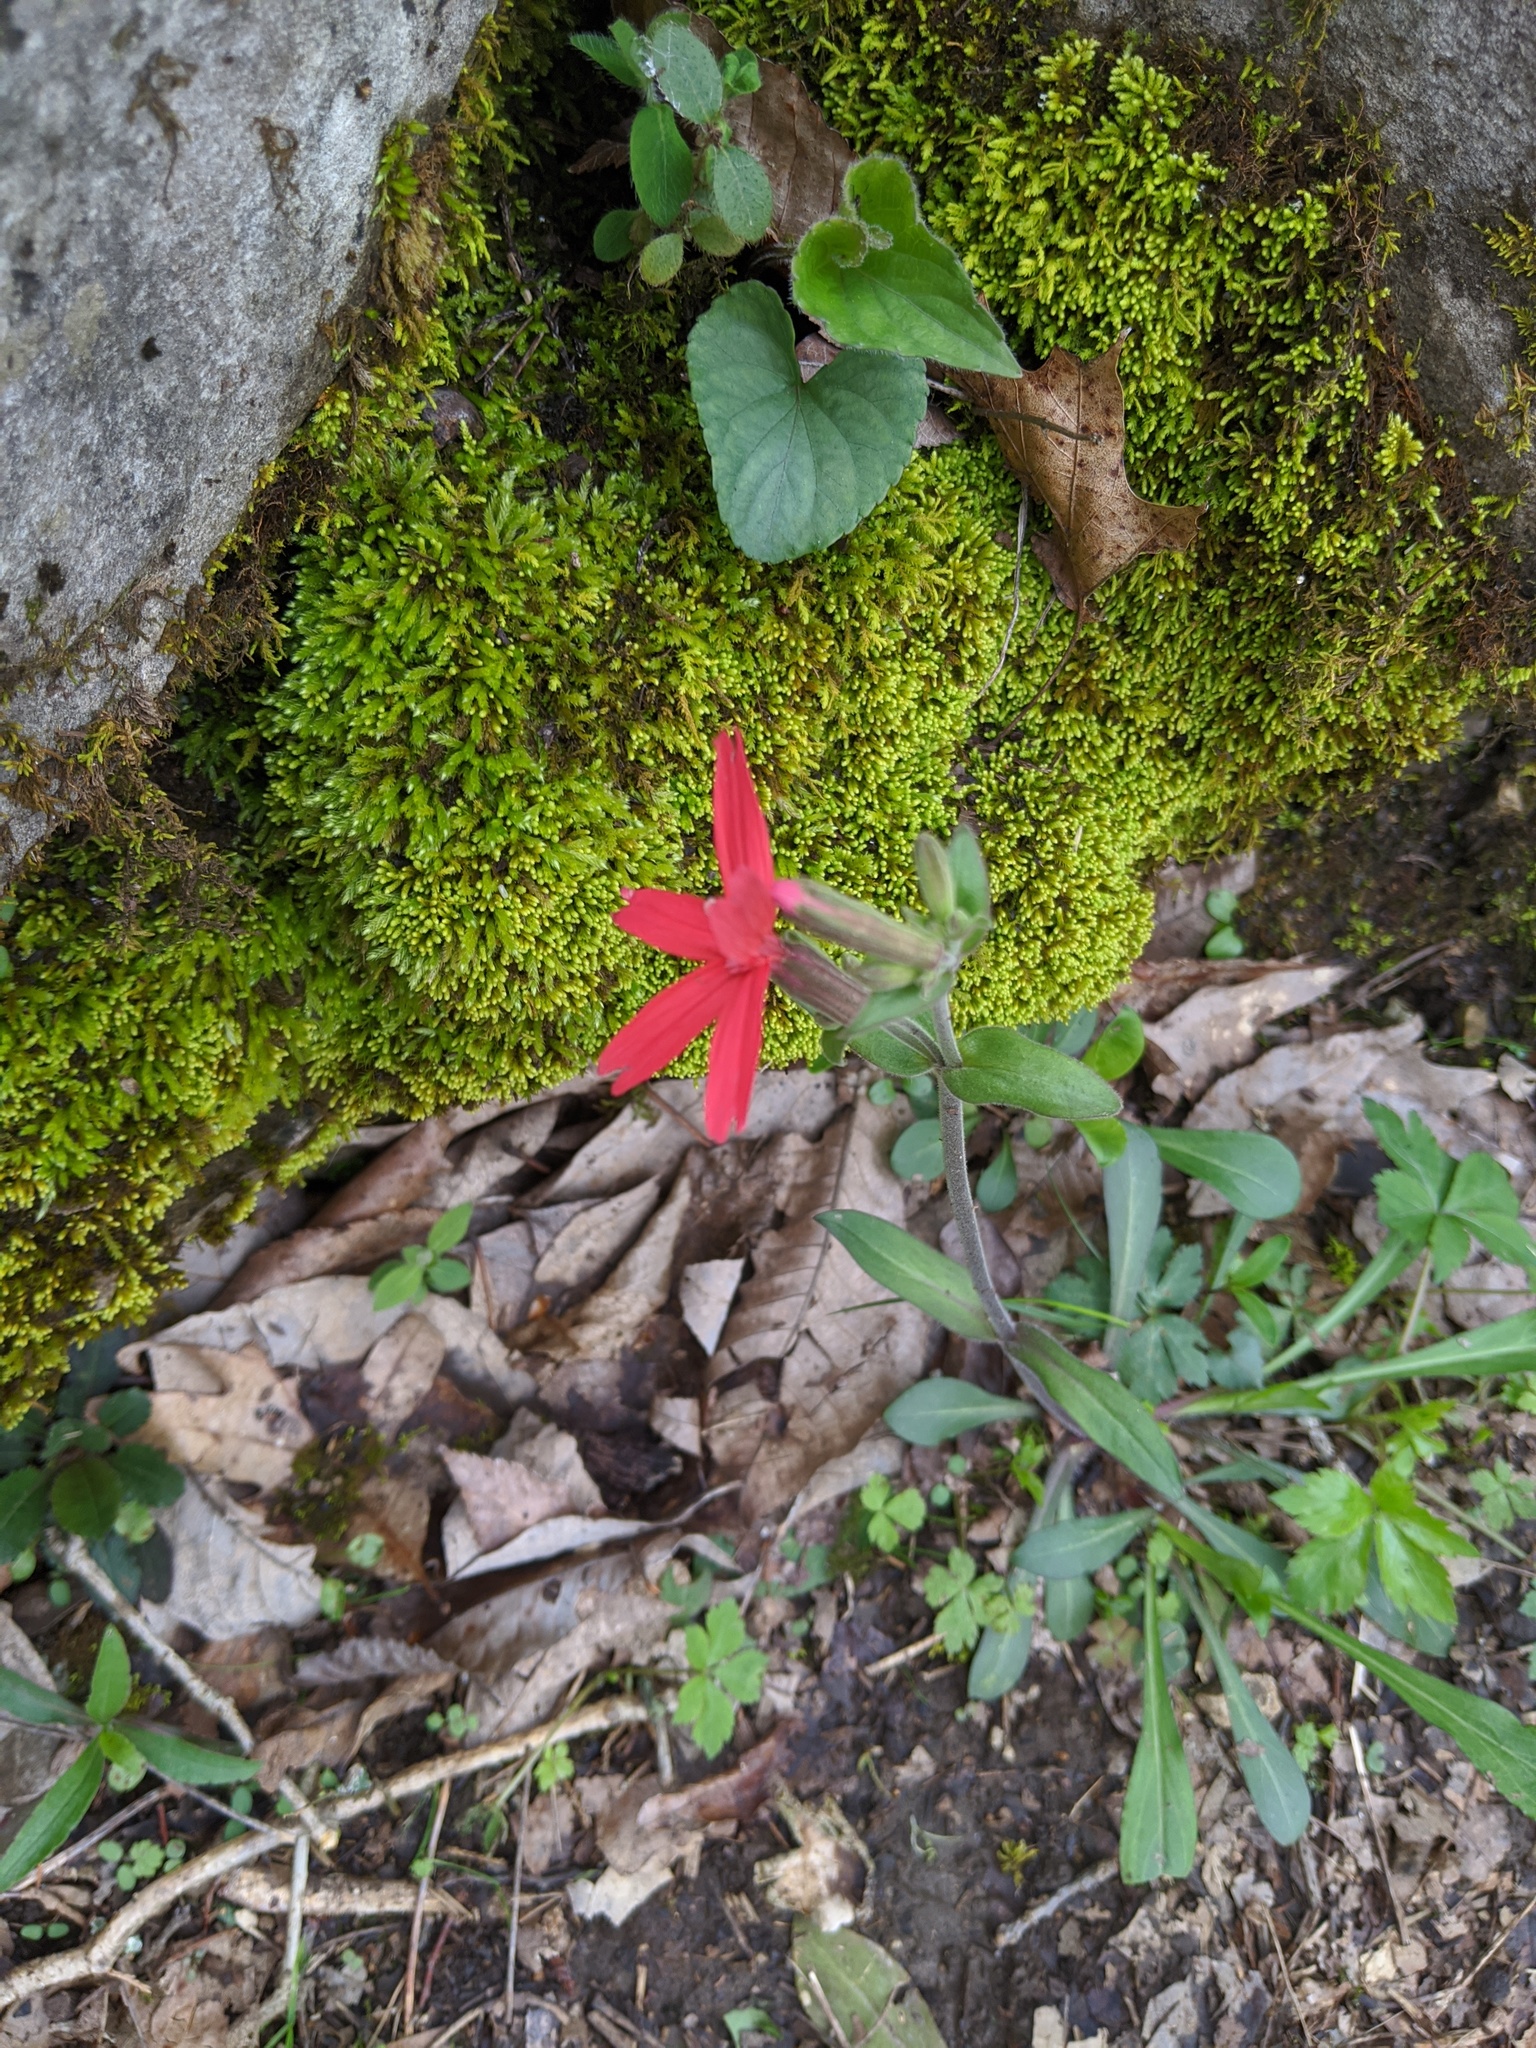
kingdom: Plantae
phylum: Tracheophyta
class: Magnoliopsida
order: Caryophyllales
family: Caryophyllaceae
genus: Silene
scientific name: Silene virginica
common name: Fire-pink
